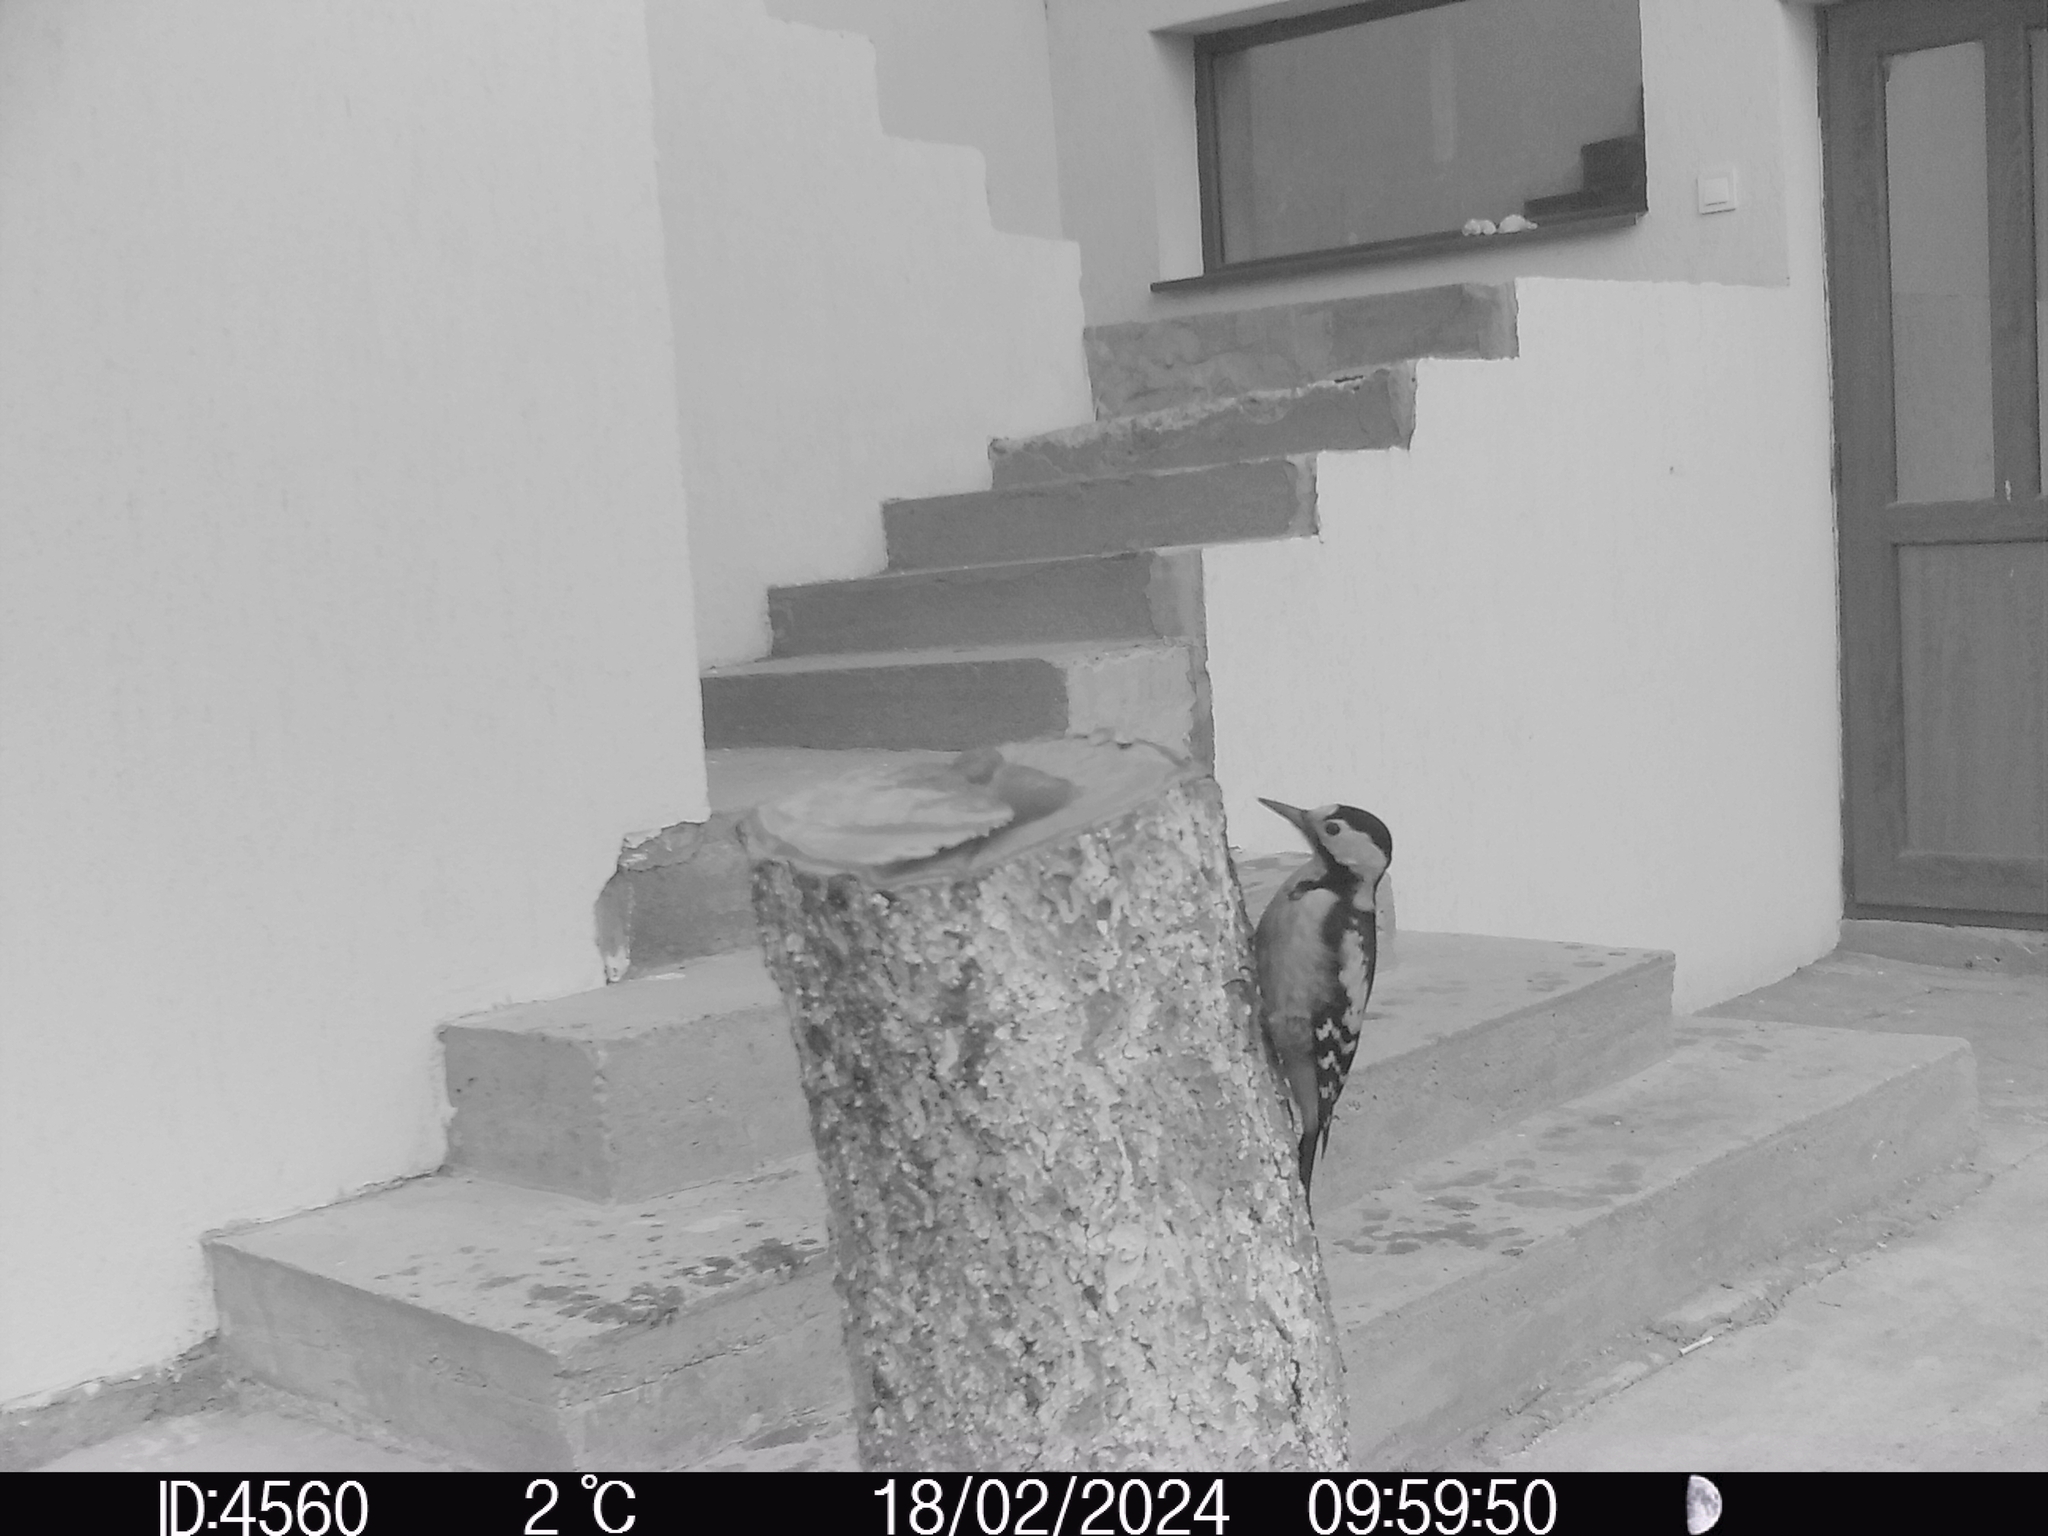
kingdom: Animalia
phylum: Chordata
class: Aves
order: Piciformes
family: Picidae
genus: Dendrocopos
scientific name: Dendrocopos syriacus
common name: Syrian woodpecker
